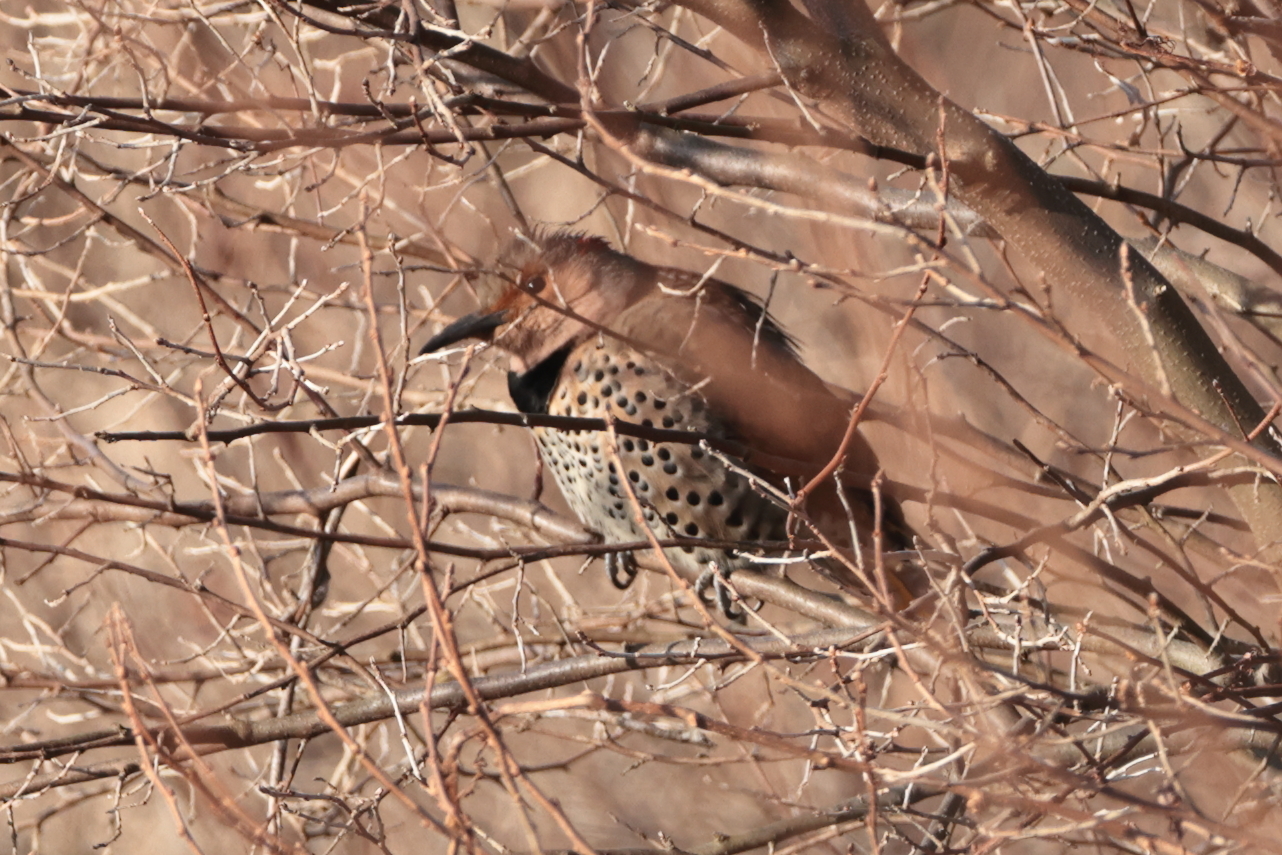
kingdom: Animalia
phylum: Chordata
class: Aves
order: Piciformes
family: Picidae
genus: Colaptes
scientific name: Colaptes auratus
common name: Northern flicker
